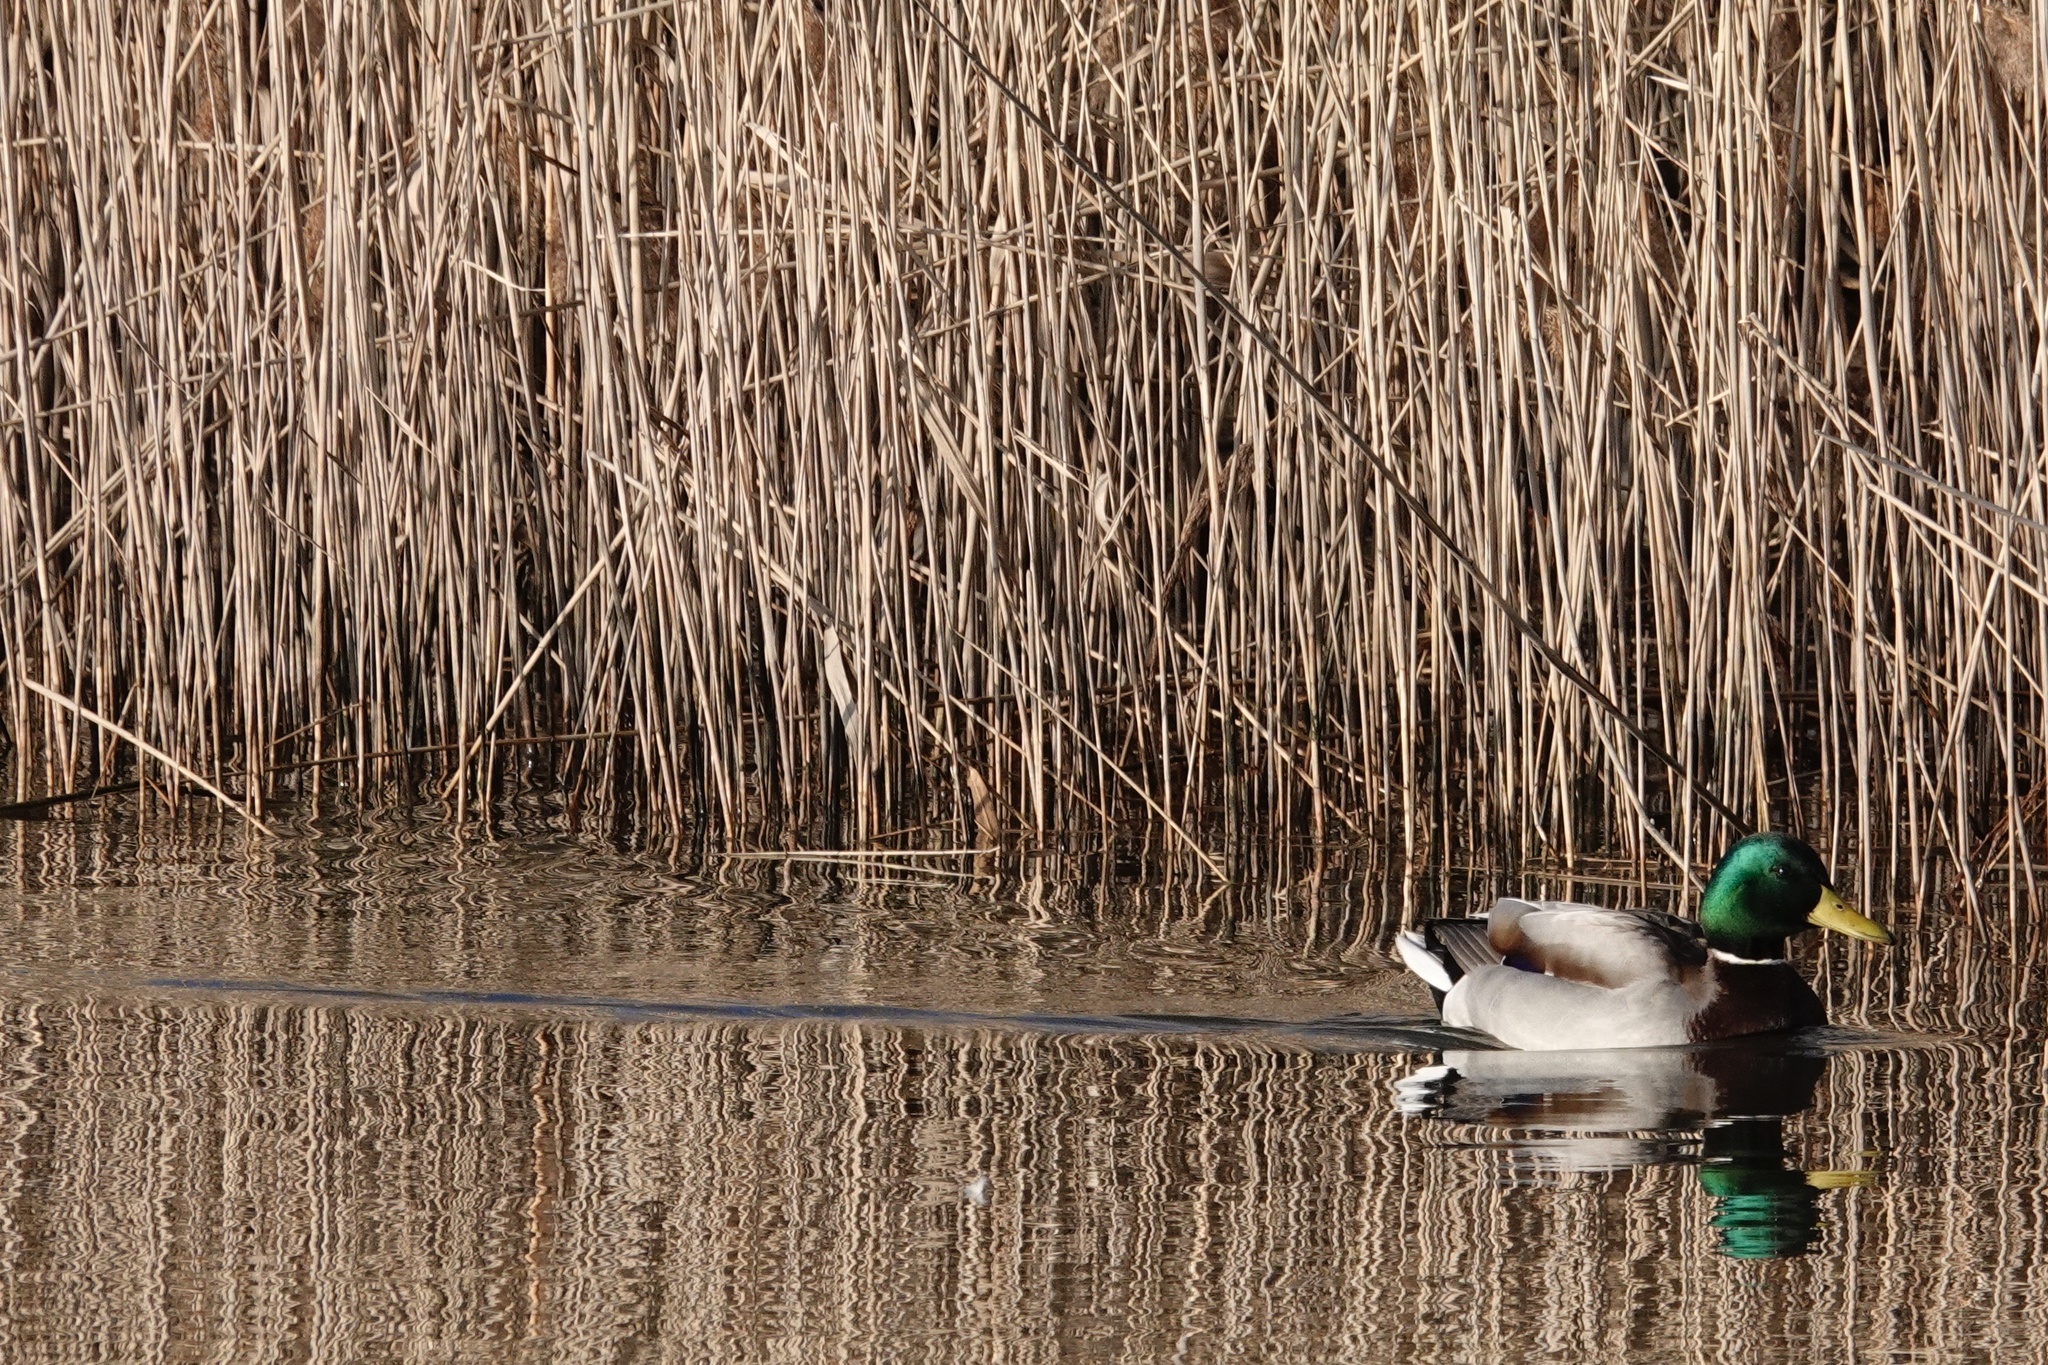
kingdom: Animalia
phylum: Chordata
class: Aves
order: Anseriformes
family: Anatidae
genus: Anas
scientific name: Anas platyrhynchos
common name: Mallard
